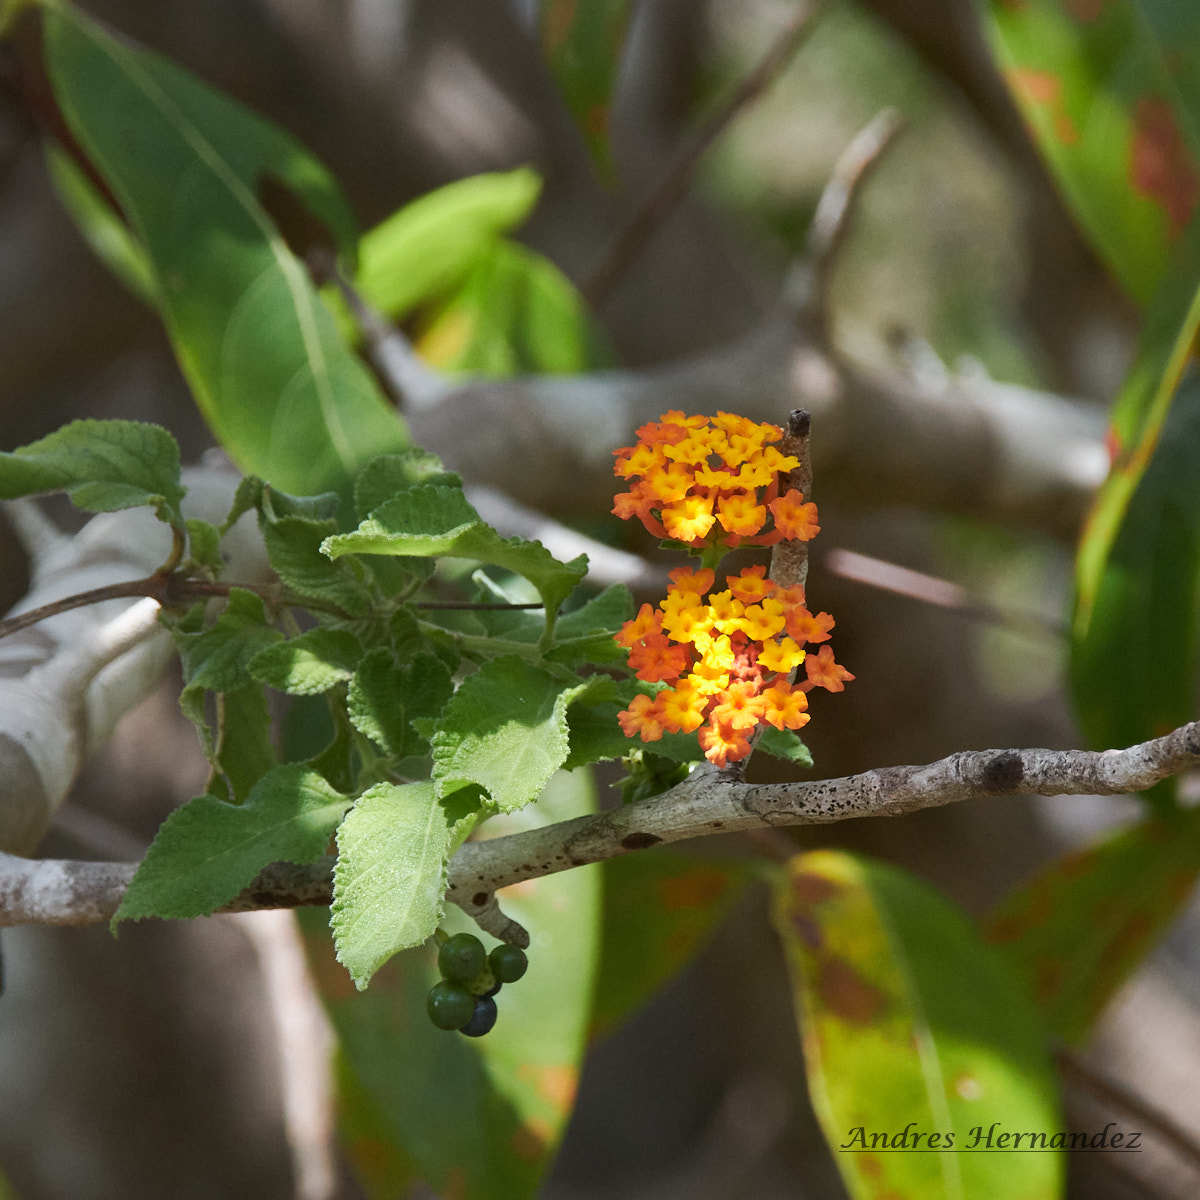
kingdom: Plantae
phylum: Tracheophyta
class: Magnoliopsida
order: Lamiales
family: Verbenaceae
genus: Lantana
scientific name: Lantana camara
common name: Lantana
